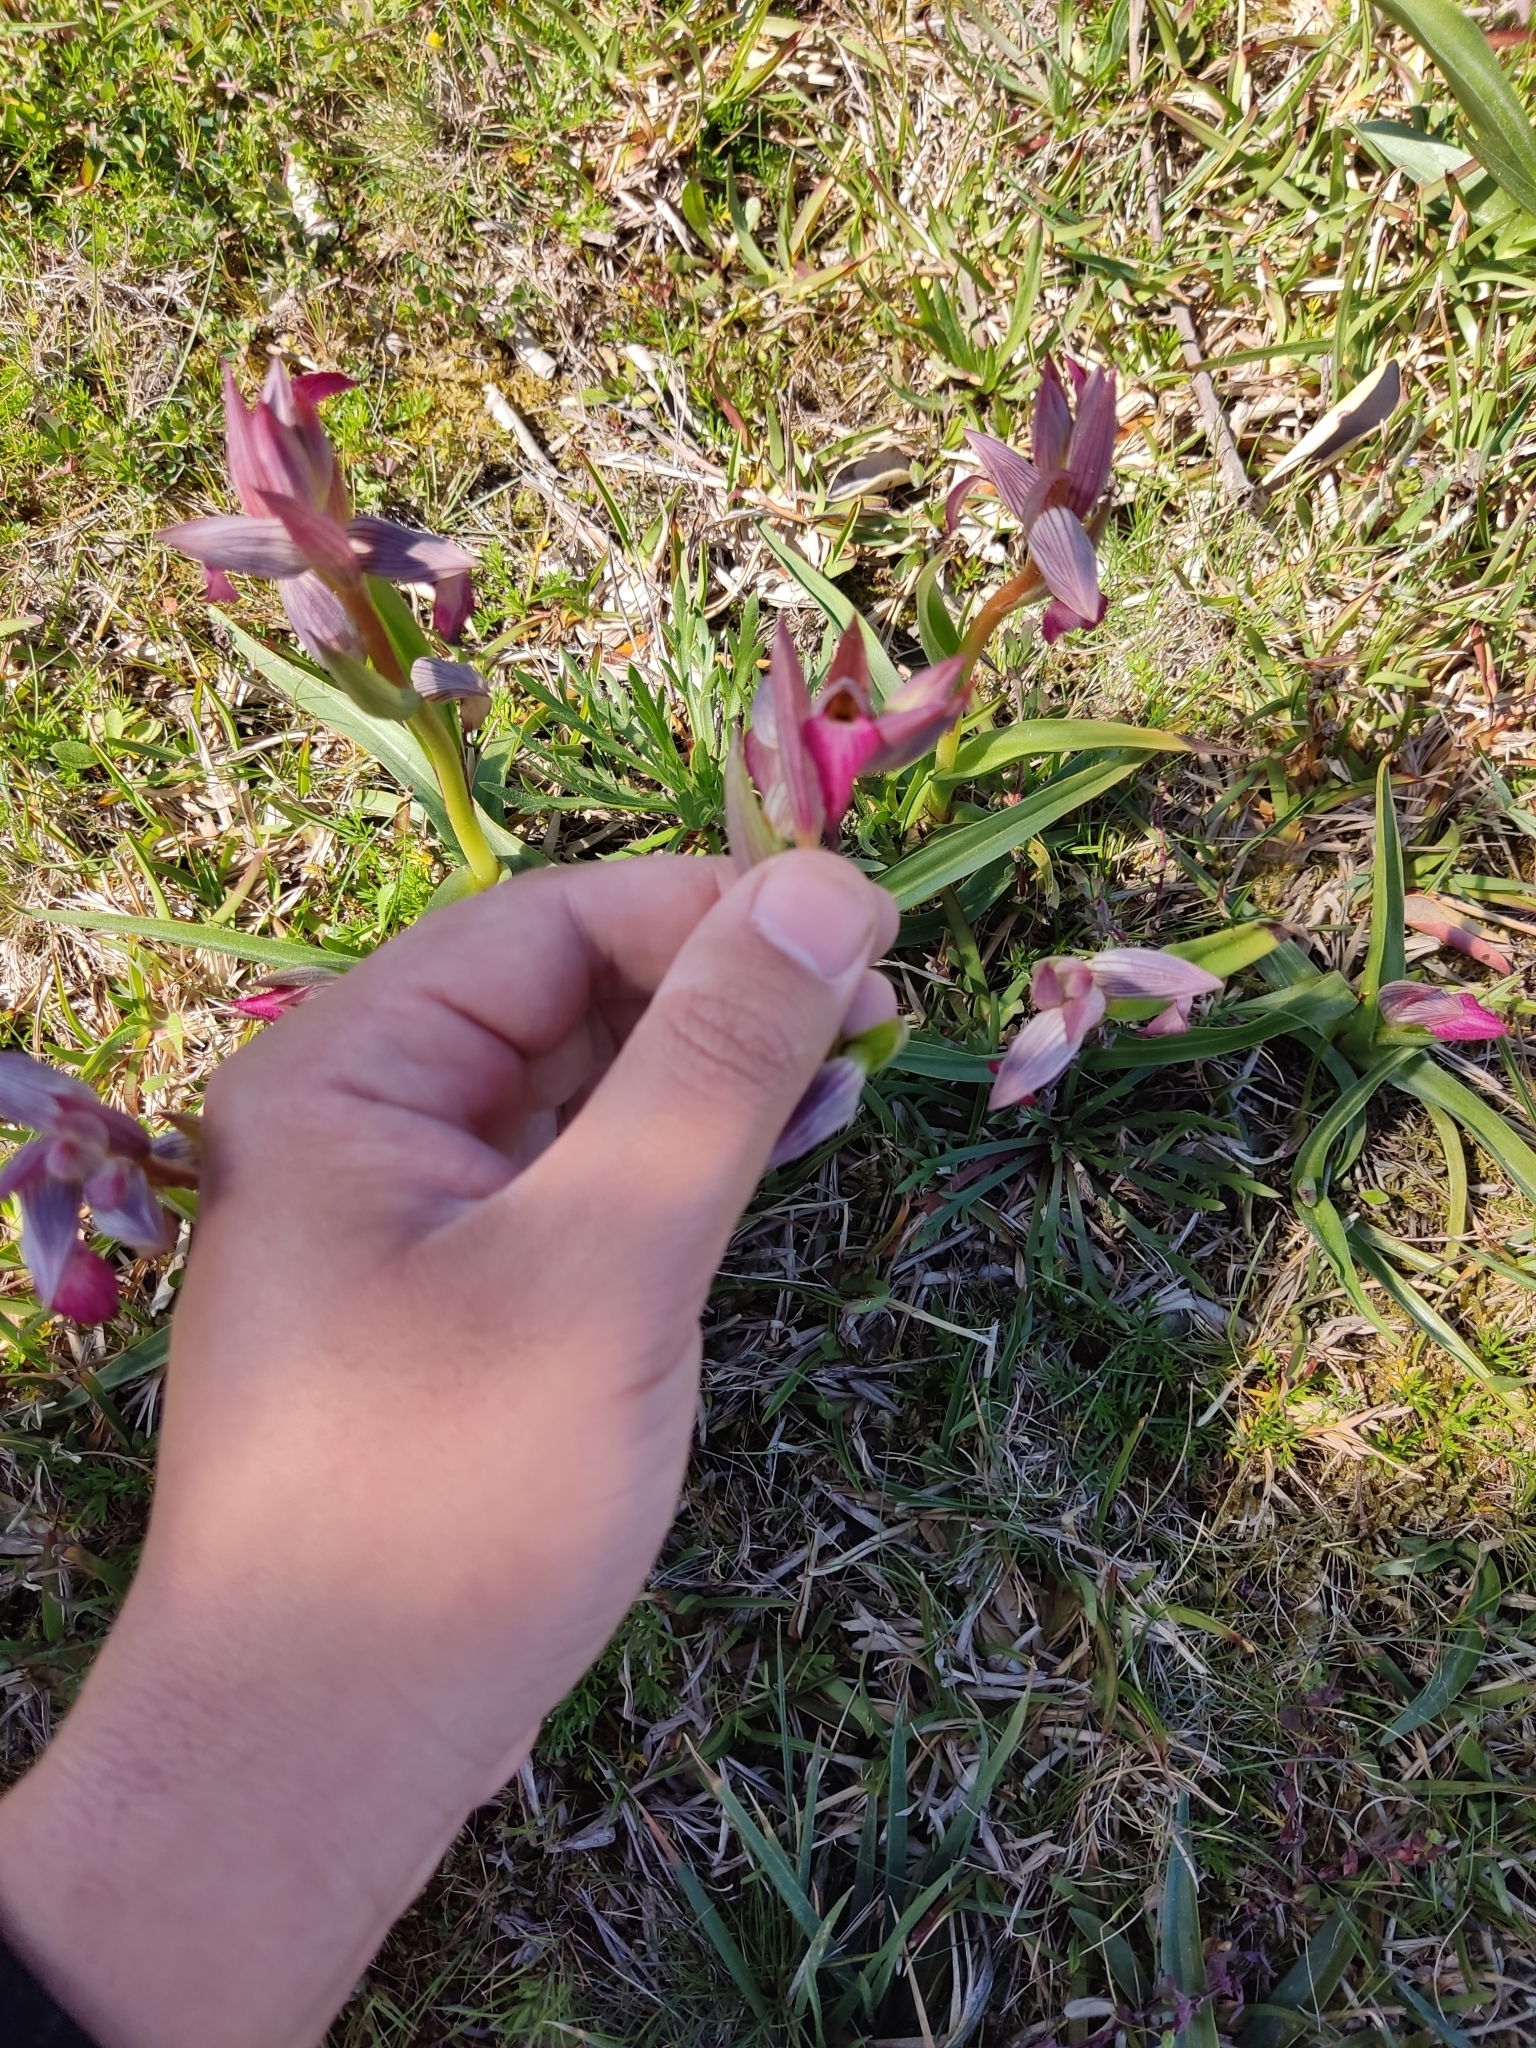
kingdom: Plantae
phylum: Tracheophyta
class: Liliopsida
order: Asparagales
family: Orchidaceae
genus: Serapias
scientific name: Serapias lingua
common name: Tongue-orchid
